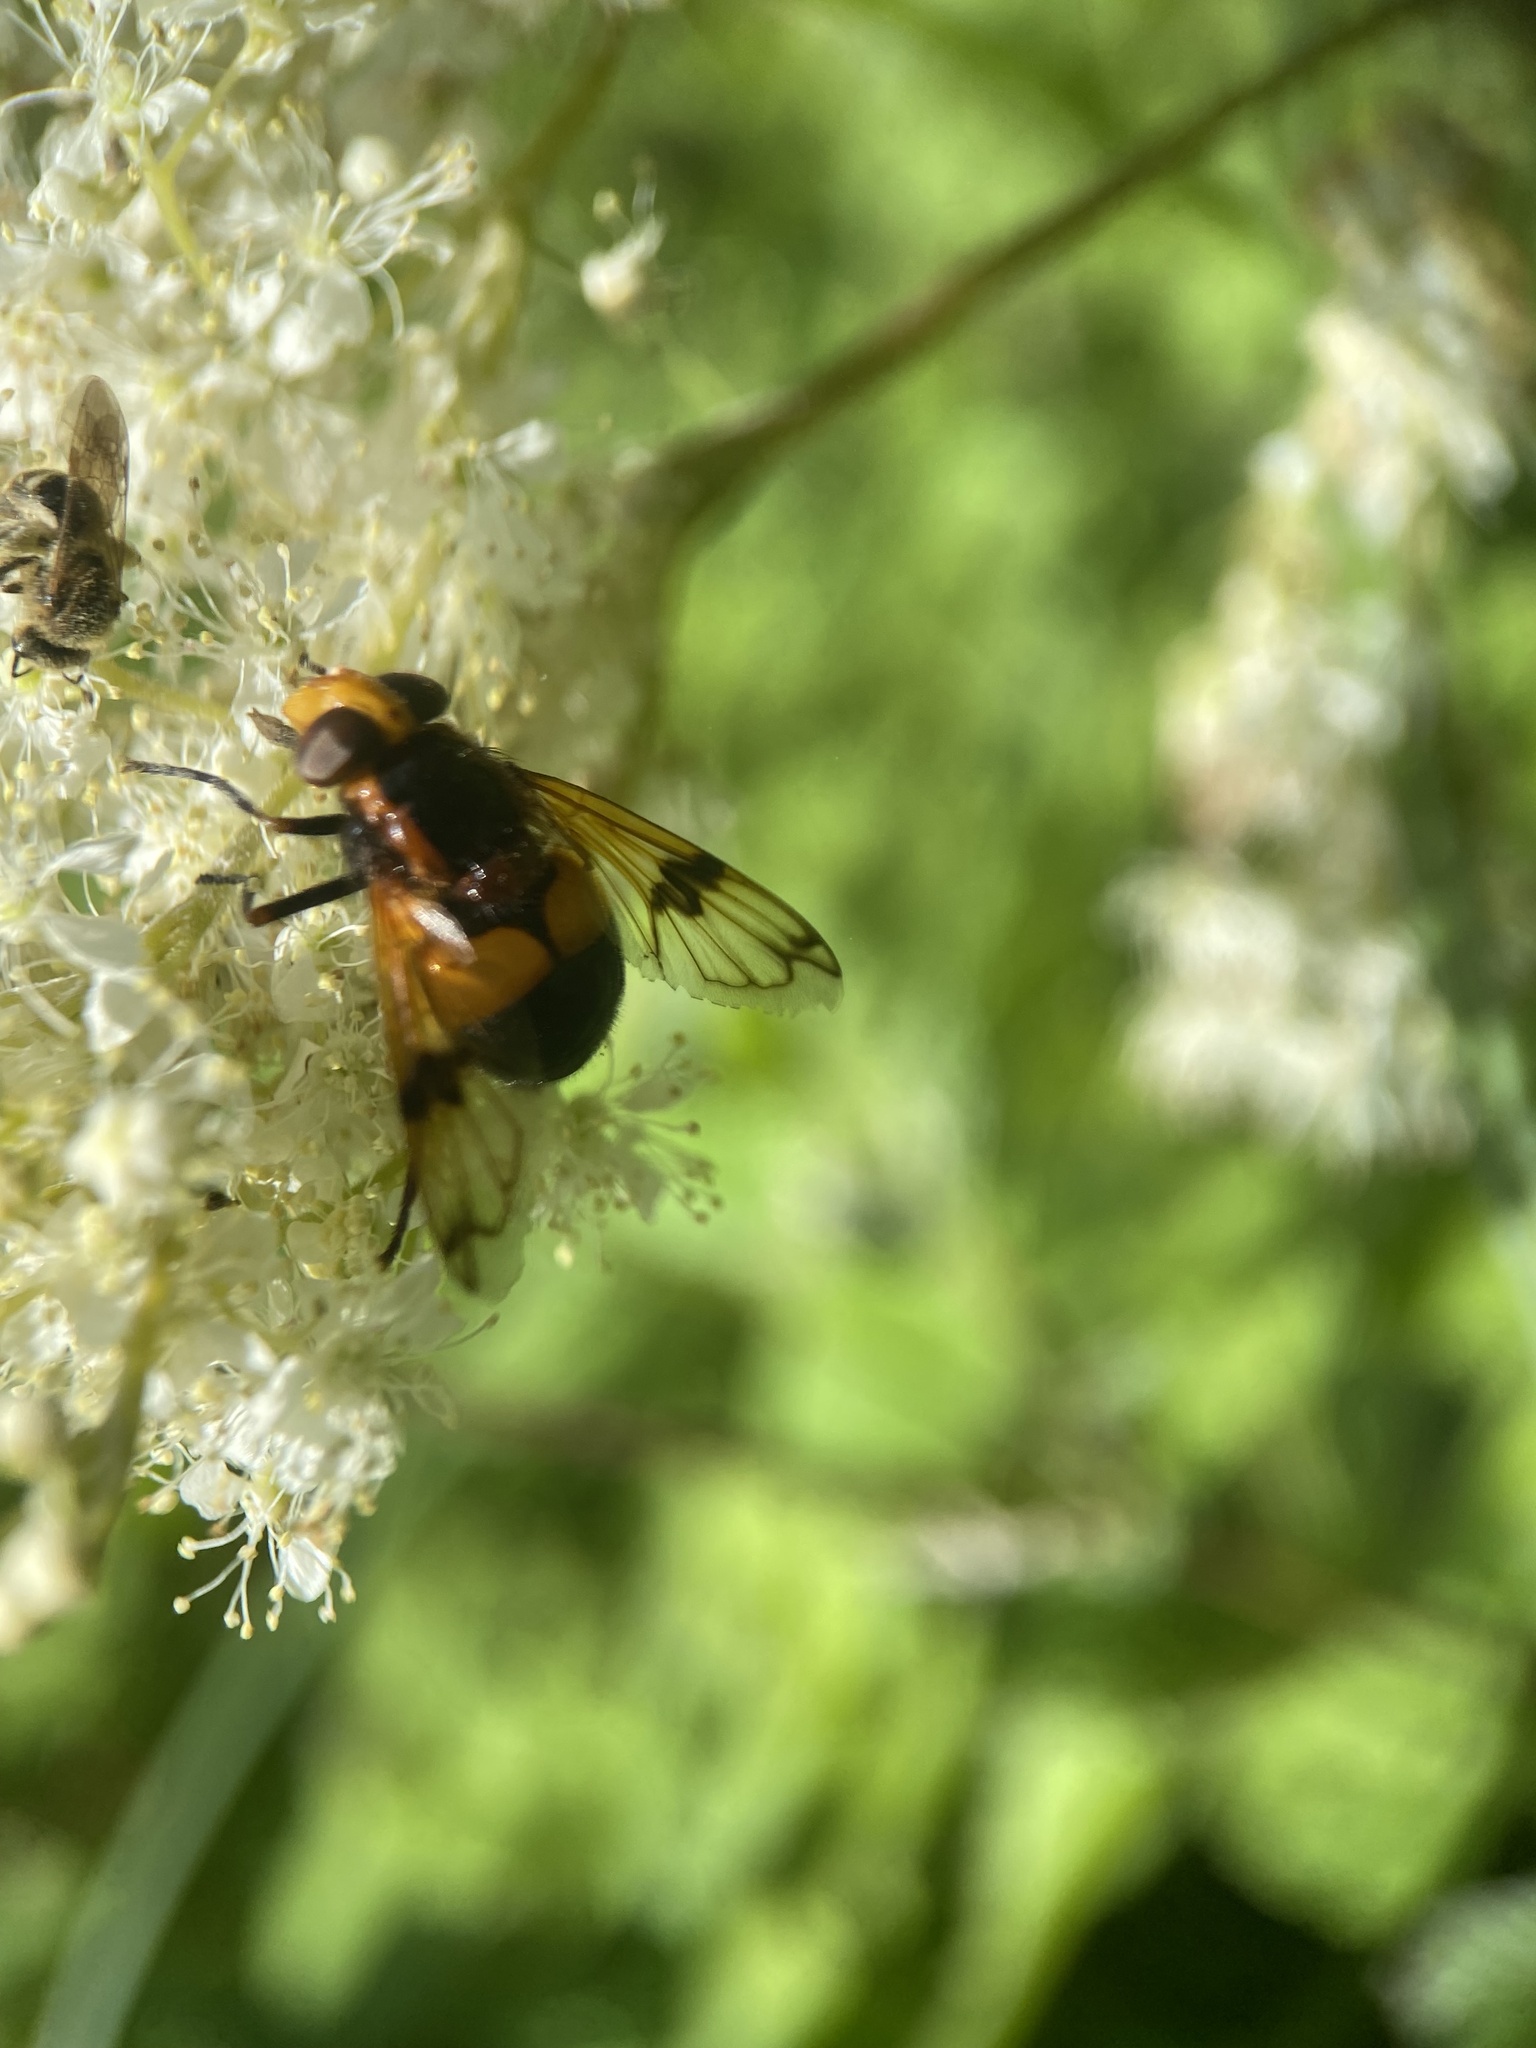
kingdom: Animalia
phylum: Arthropoda
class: Insecta
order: Diptera
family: Syrphidae
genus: Volucella
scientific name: Volucella inflata
